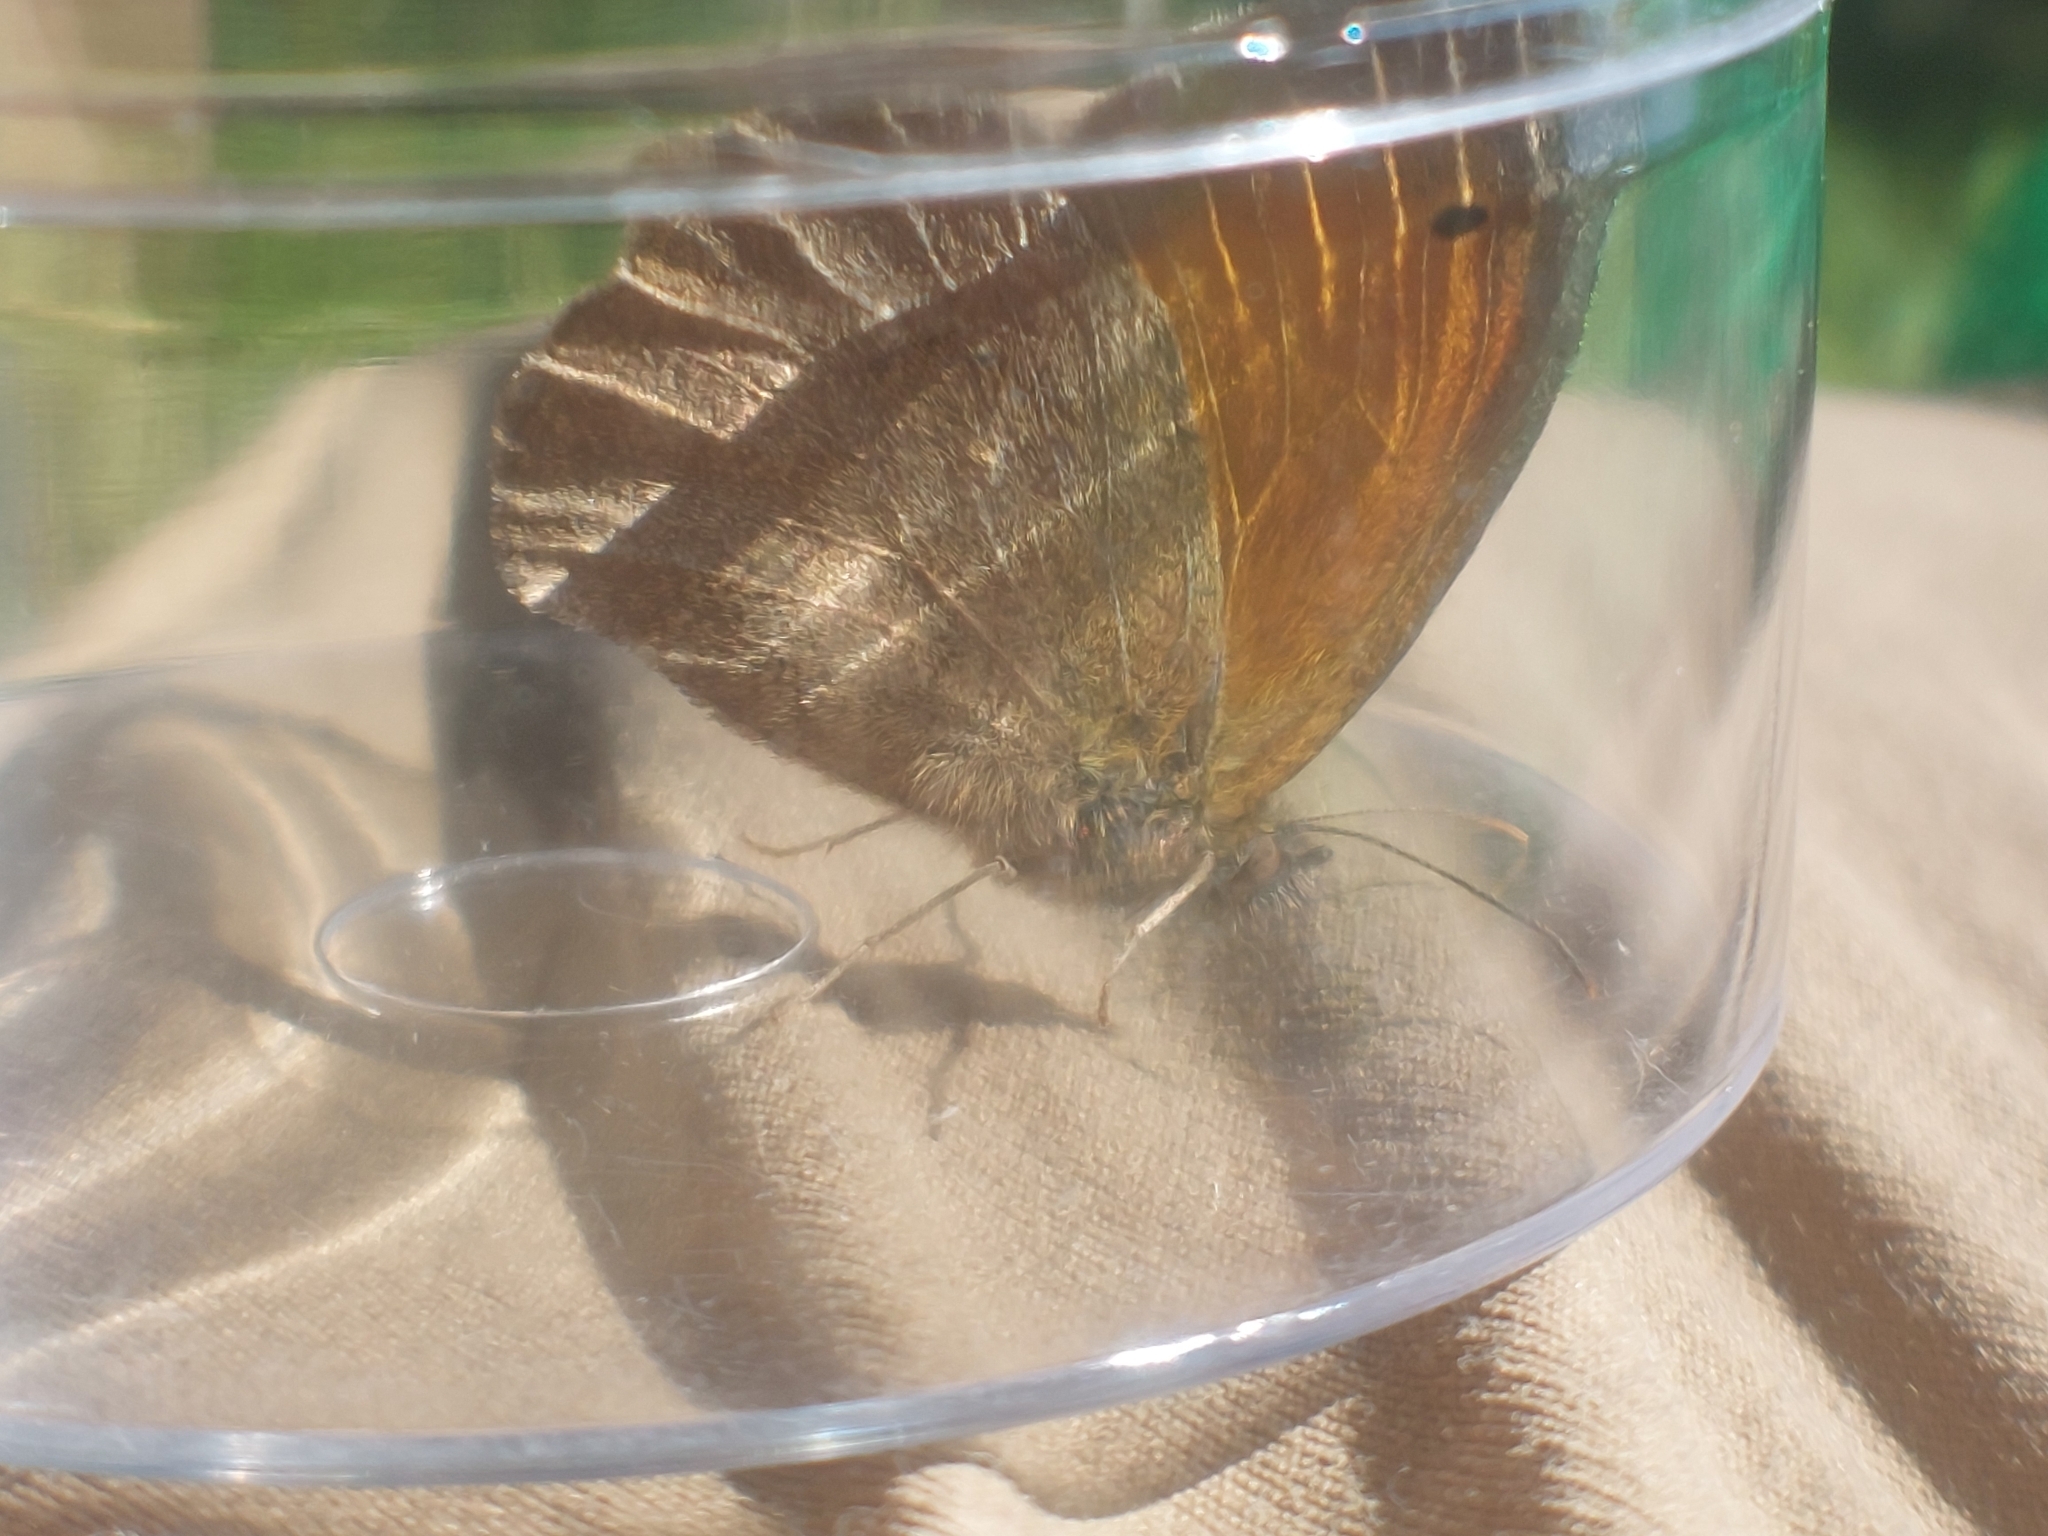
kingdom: Animalia
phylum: Arthropoda
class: Insecta
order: Lepidoptera
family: Nymphalidae
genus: Maniola
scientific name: Maniola jurtina
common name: Meadow brown
